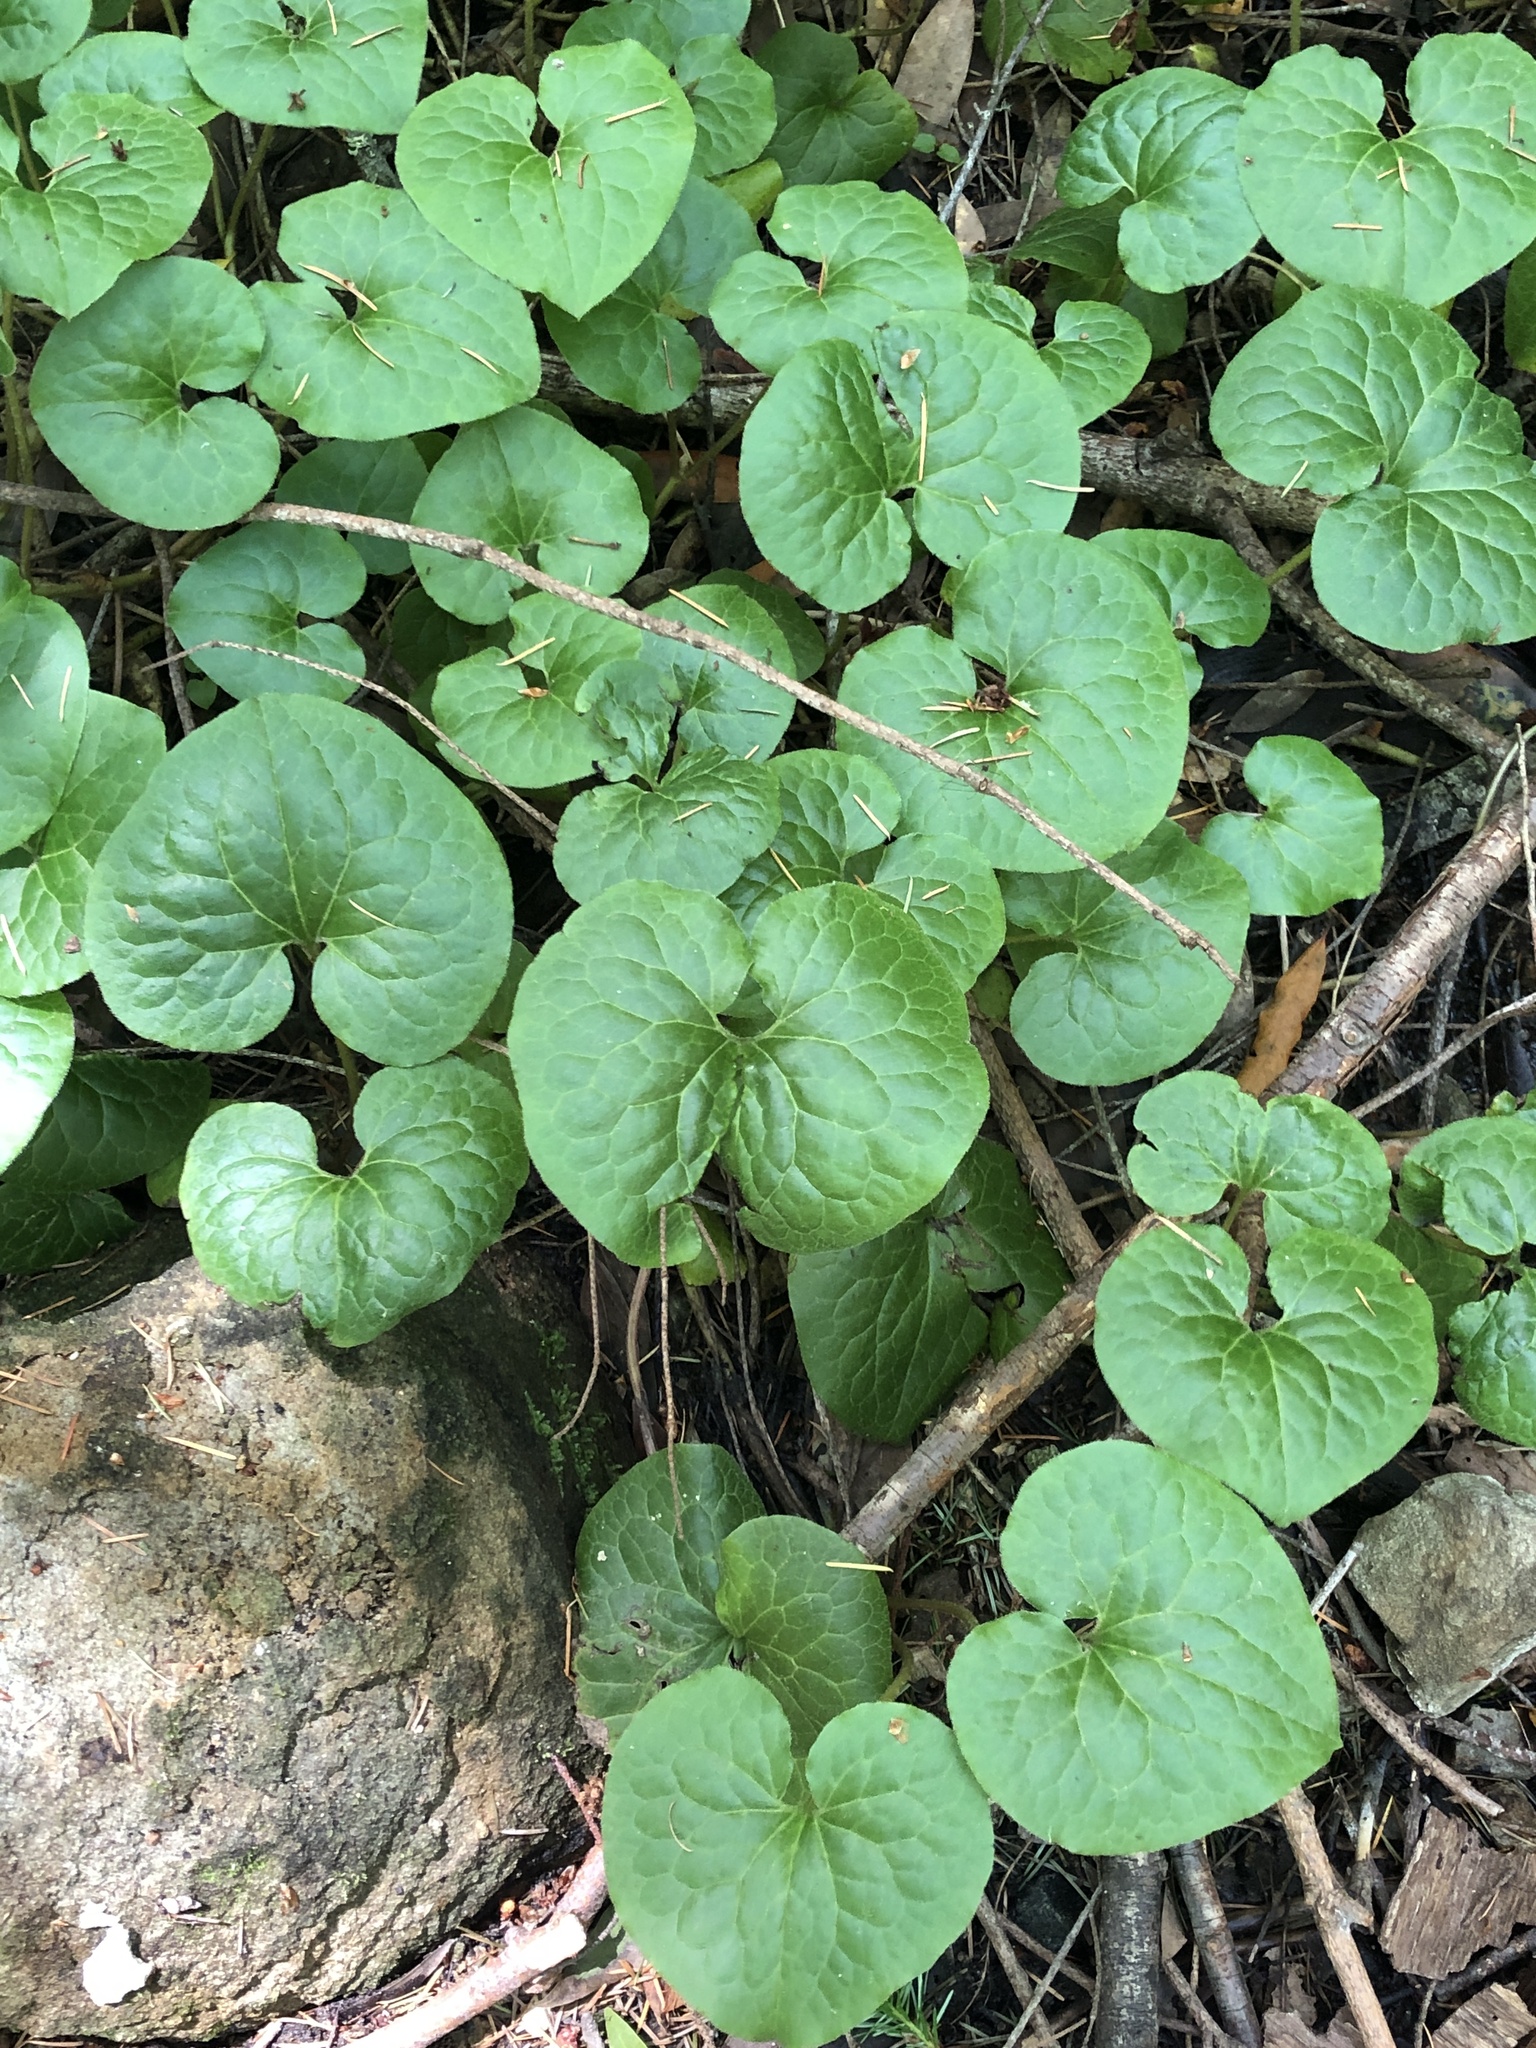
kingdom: Plantae
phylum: Tracheophyta
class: Magnoliopsida
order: Piperales
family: Aristolochiaceae
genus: Asarum
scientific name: Asarum caudatum
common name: Wild ginger
